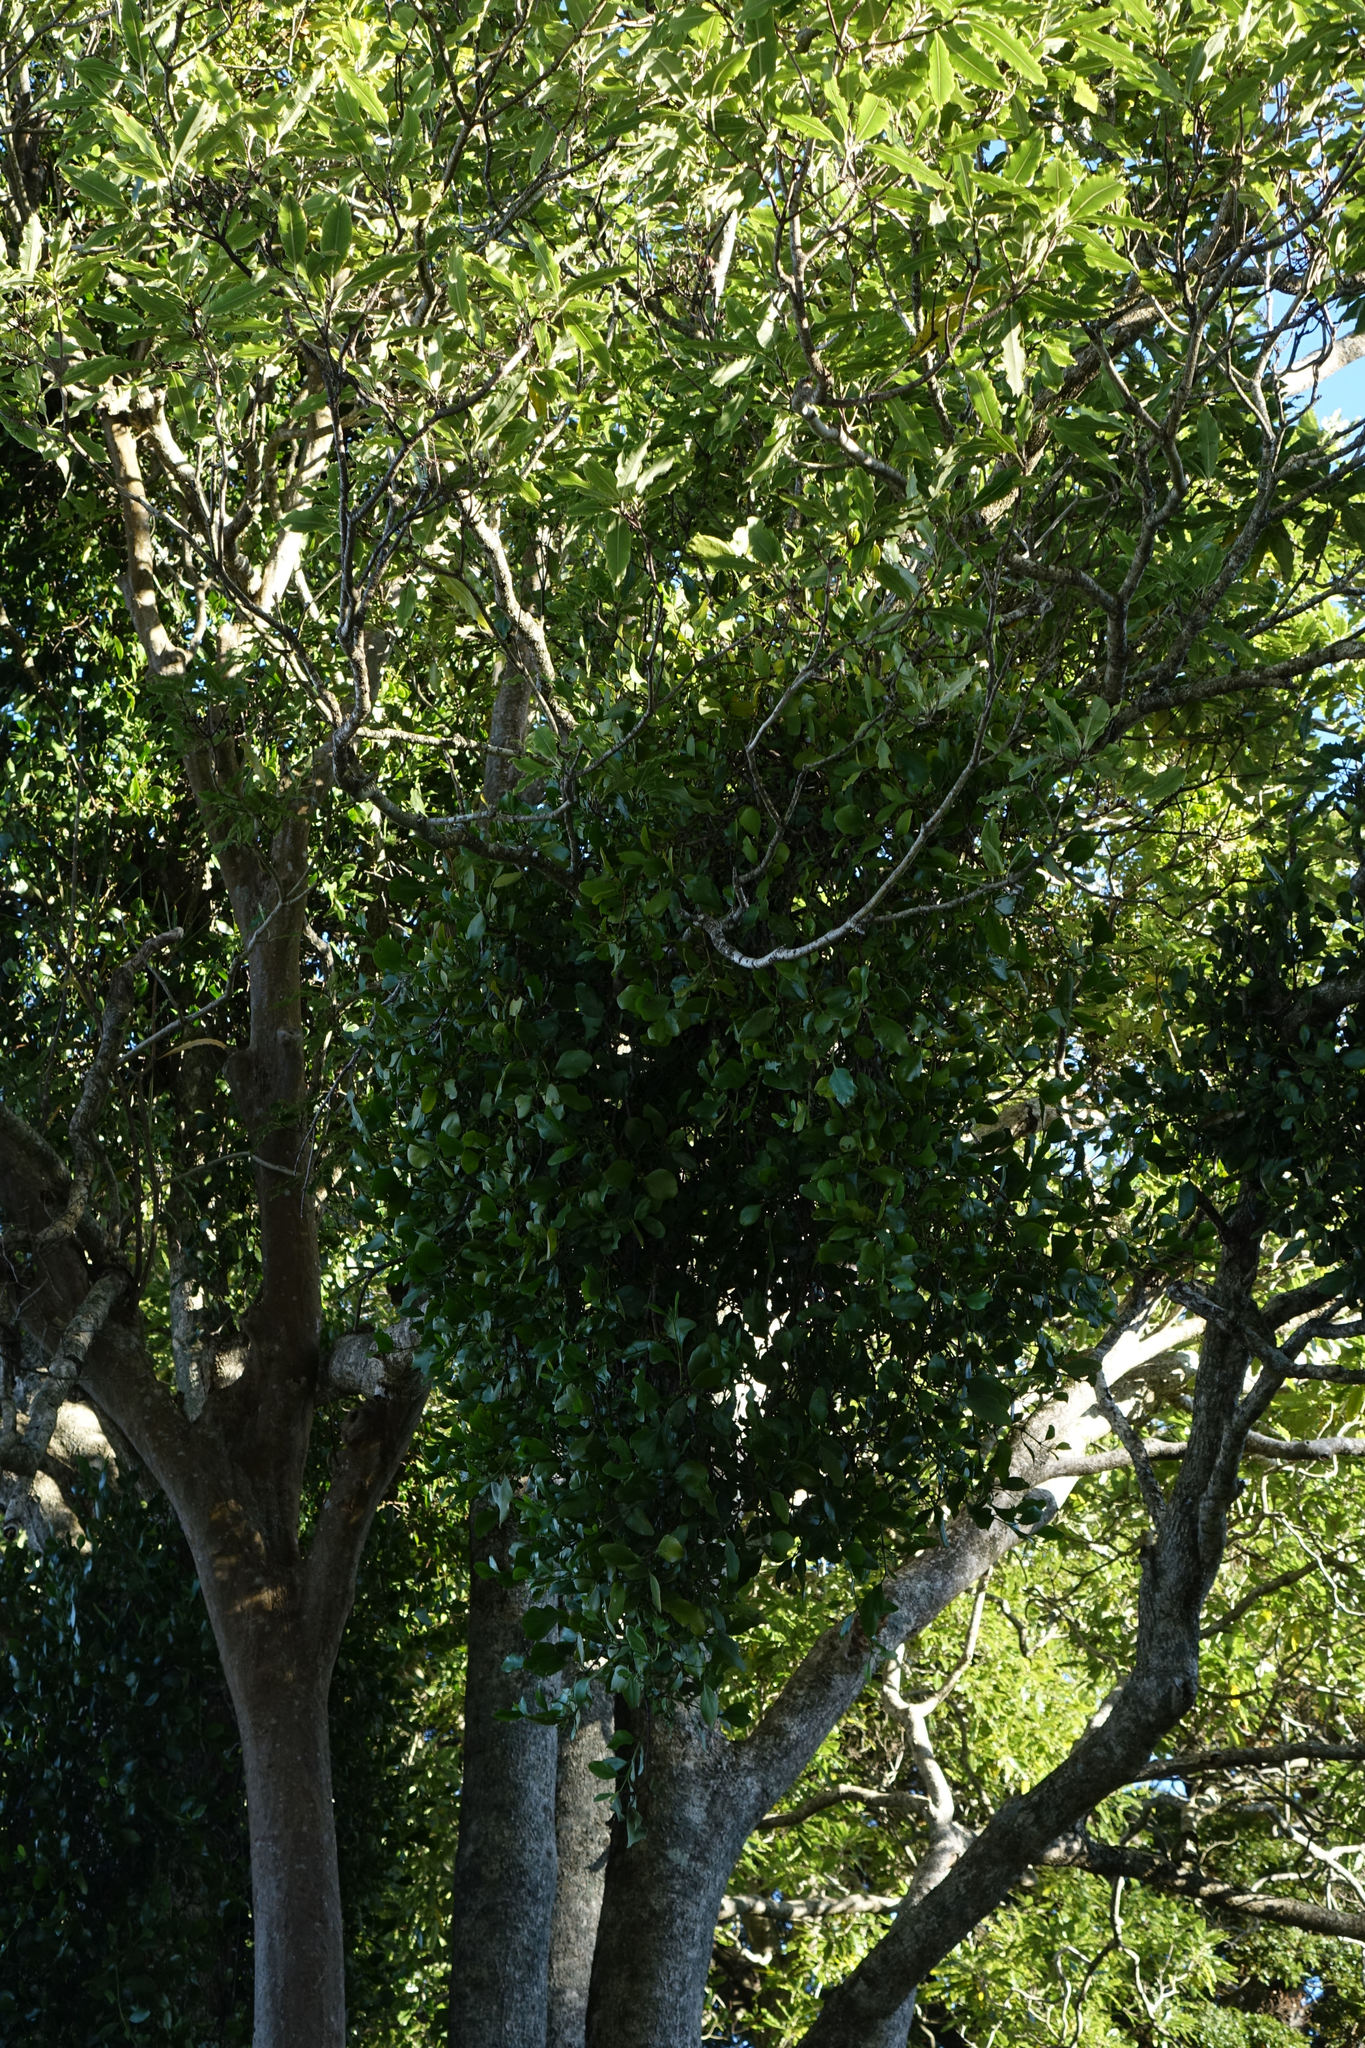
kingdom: Plantae
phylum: Tracheophyta
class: Magnoliopsida
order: Santalales
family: Loranthaceae
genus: Ileostylus
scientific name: Ileostylus micranthus
